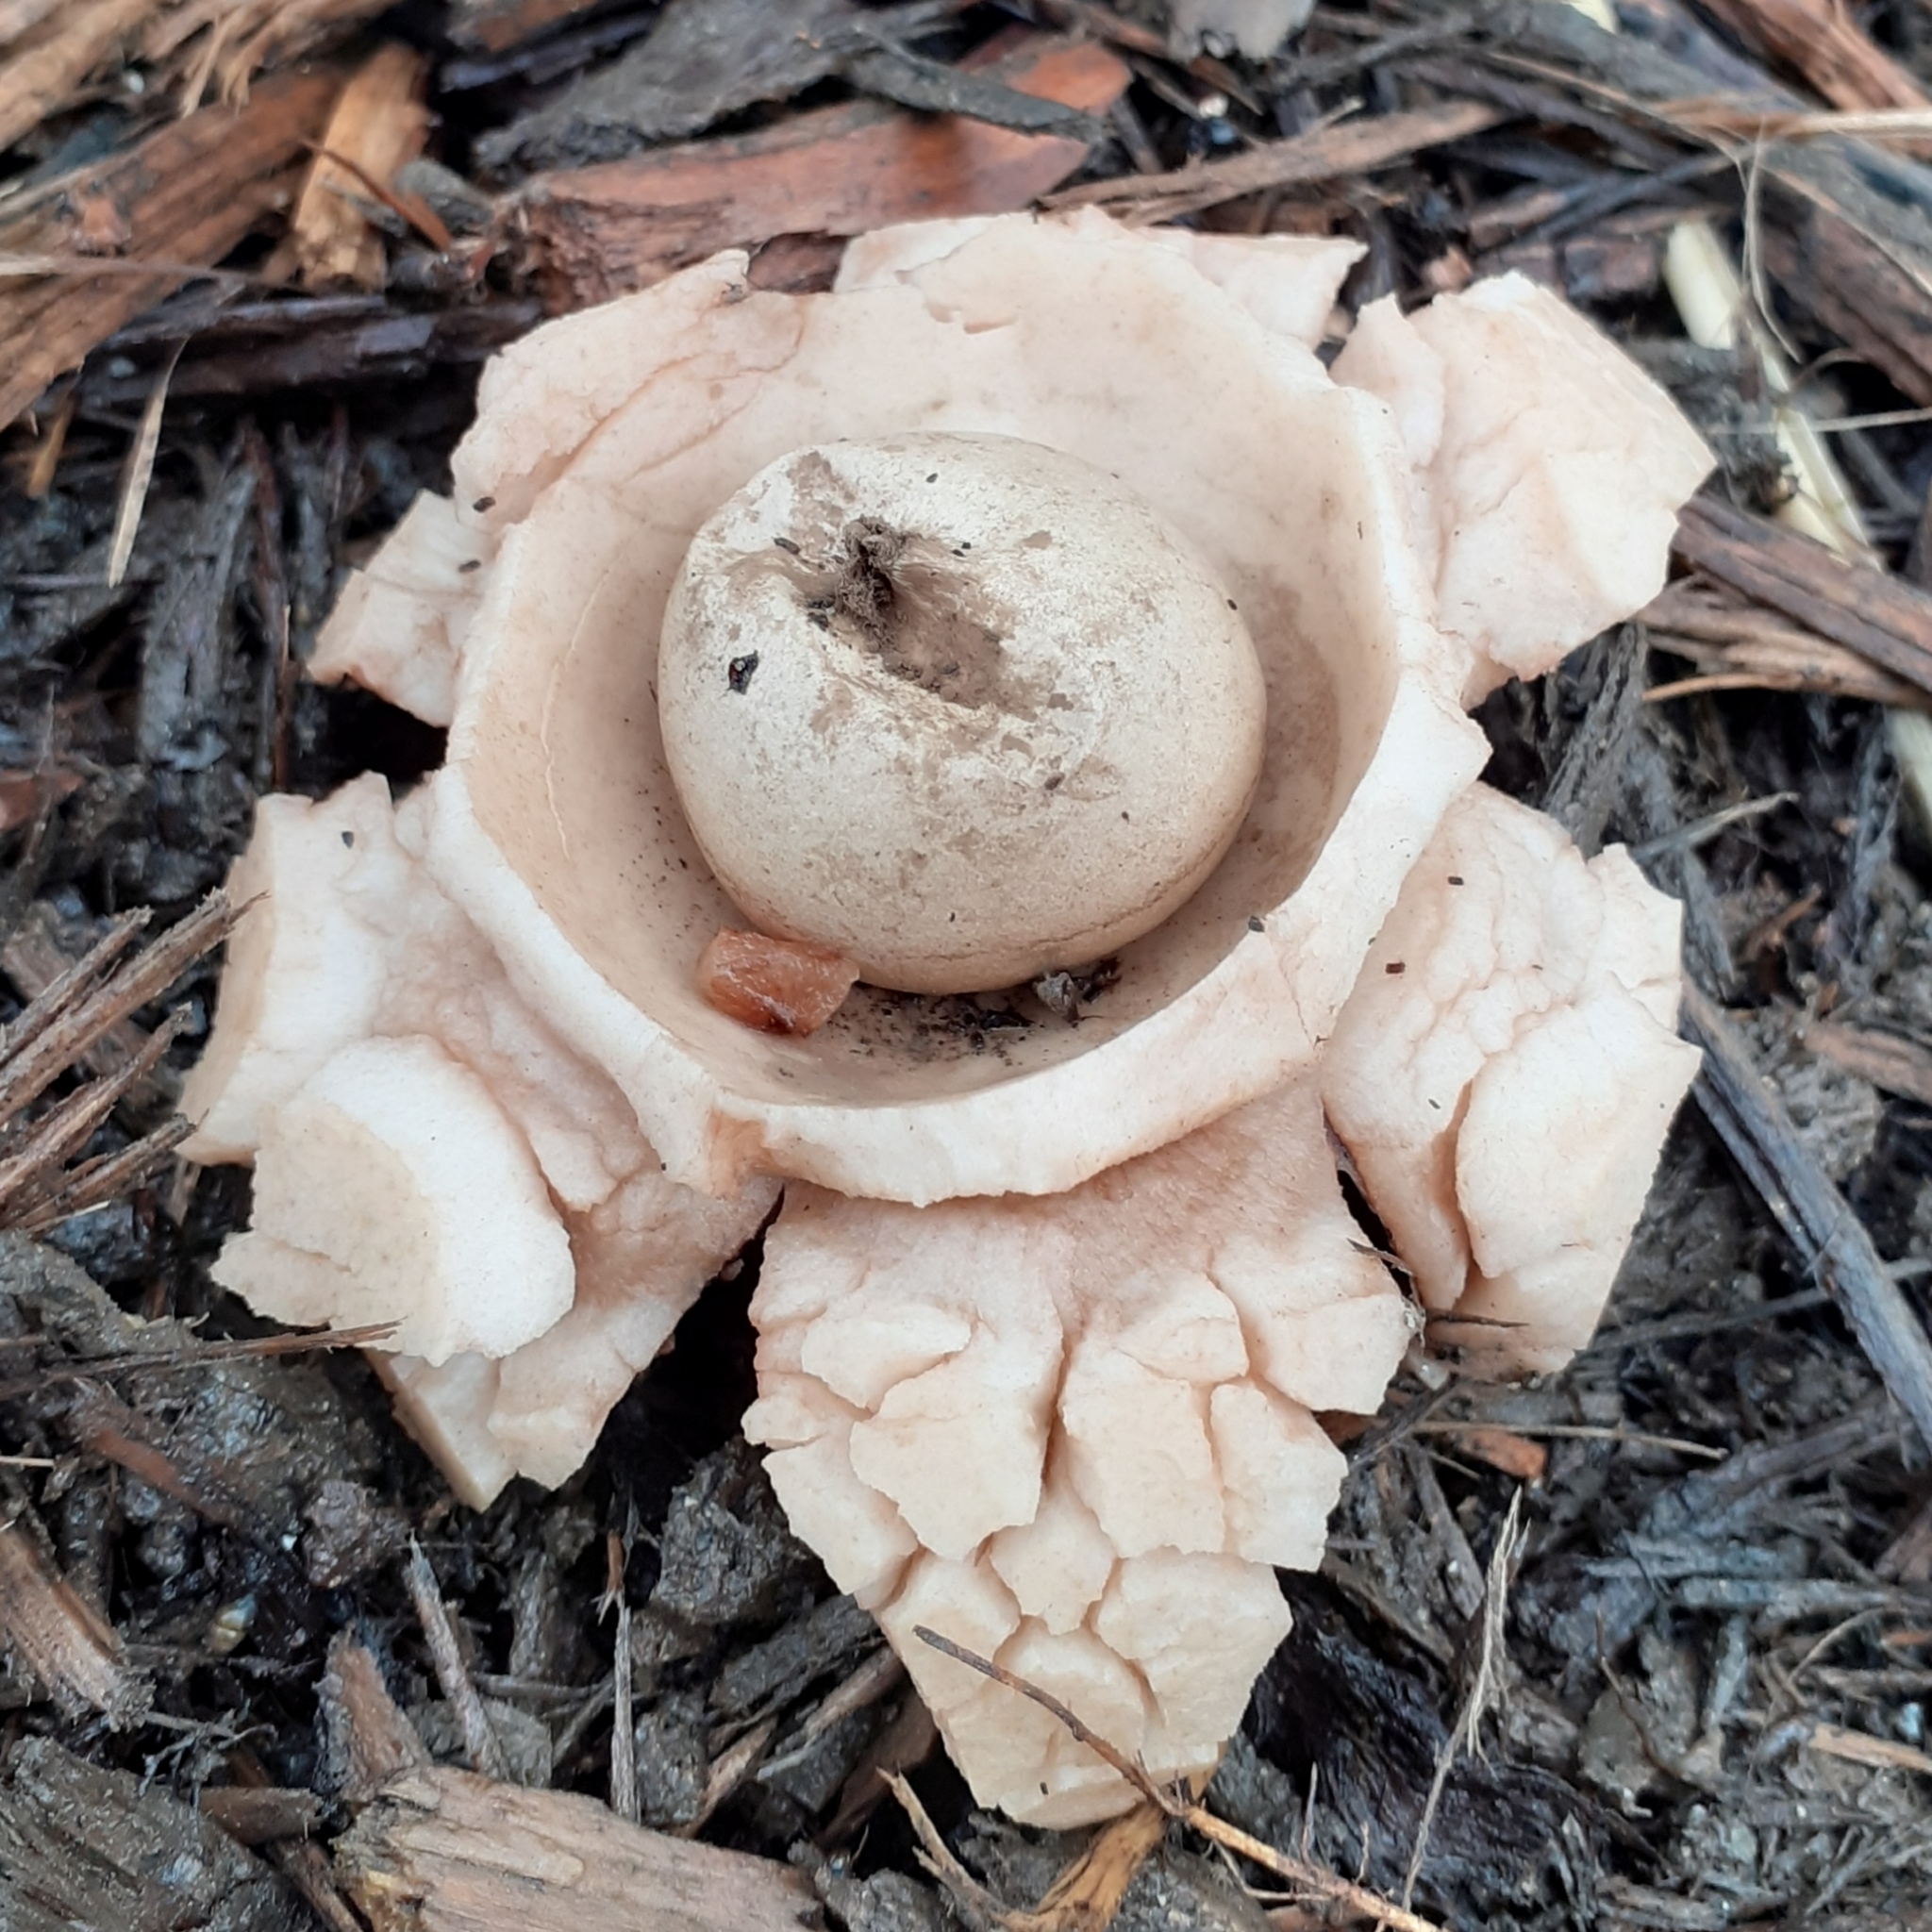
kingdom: Fungi
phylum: Basidiomycota
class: Agaricomycetes
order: Geastrales
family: Geastraceae
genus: Geastrum
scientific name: Geastrum triplex
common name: Collared earthstar
